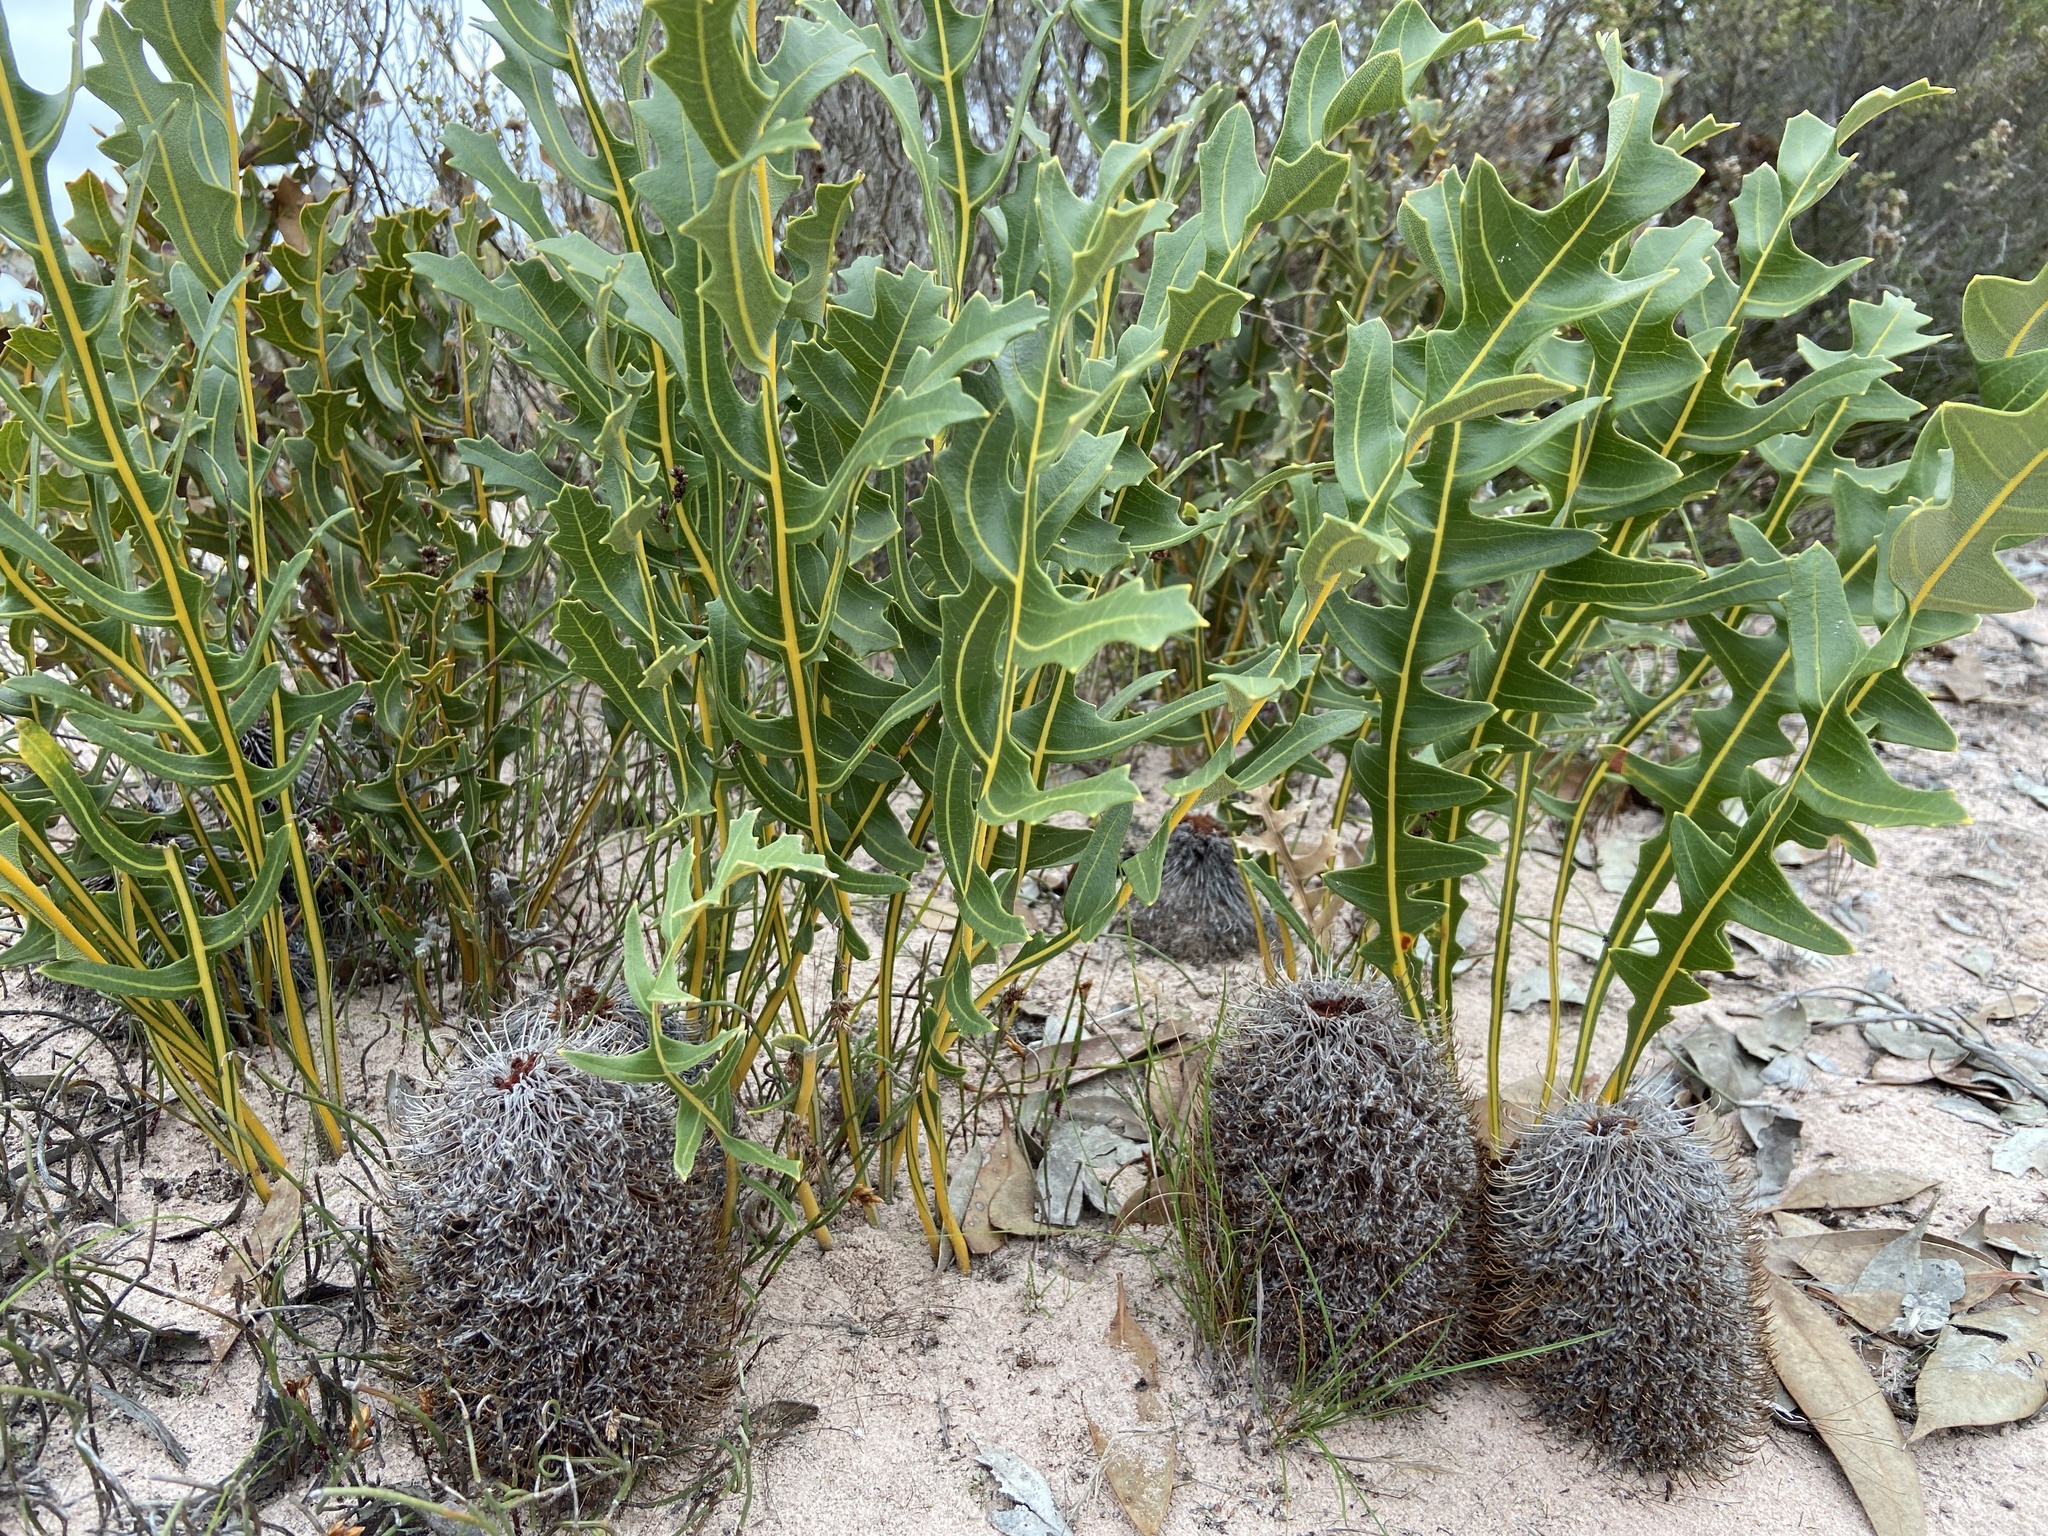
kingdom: Plantae
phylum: Tracheophyta
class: Magnoliopsida
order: Proteales
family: Proteaceae
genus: Banksia
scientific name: Banksia repens
